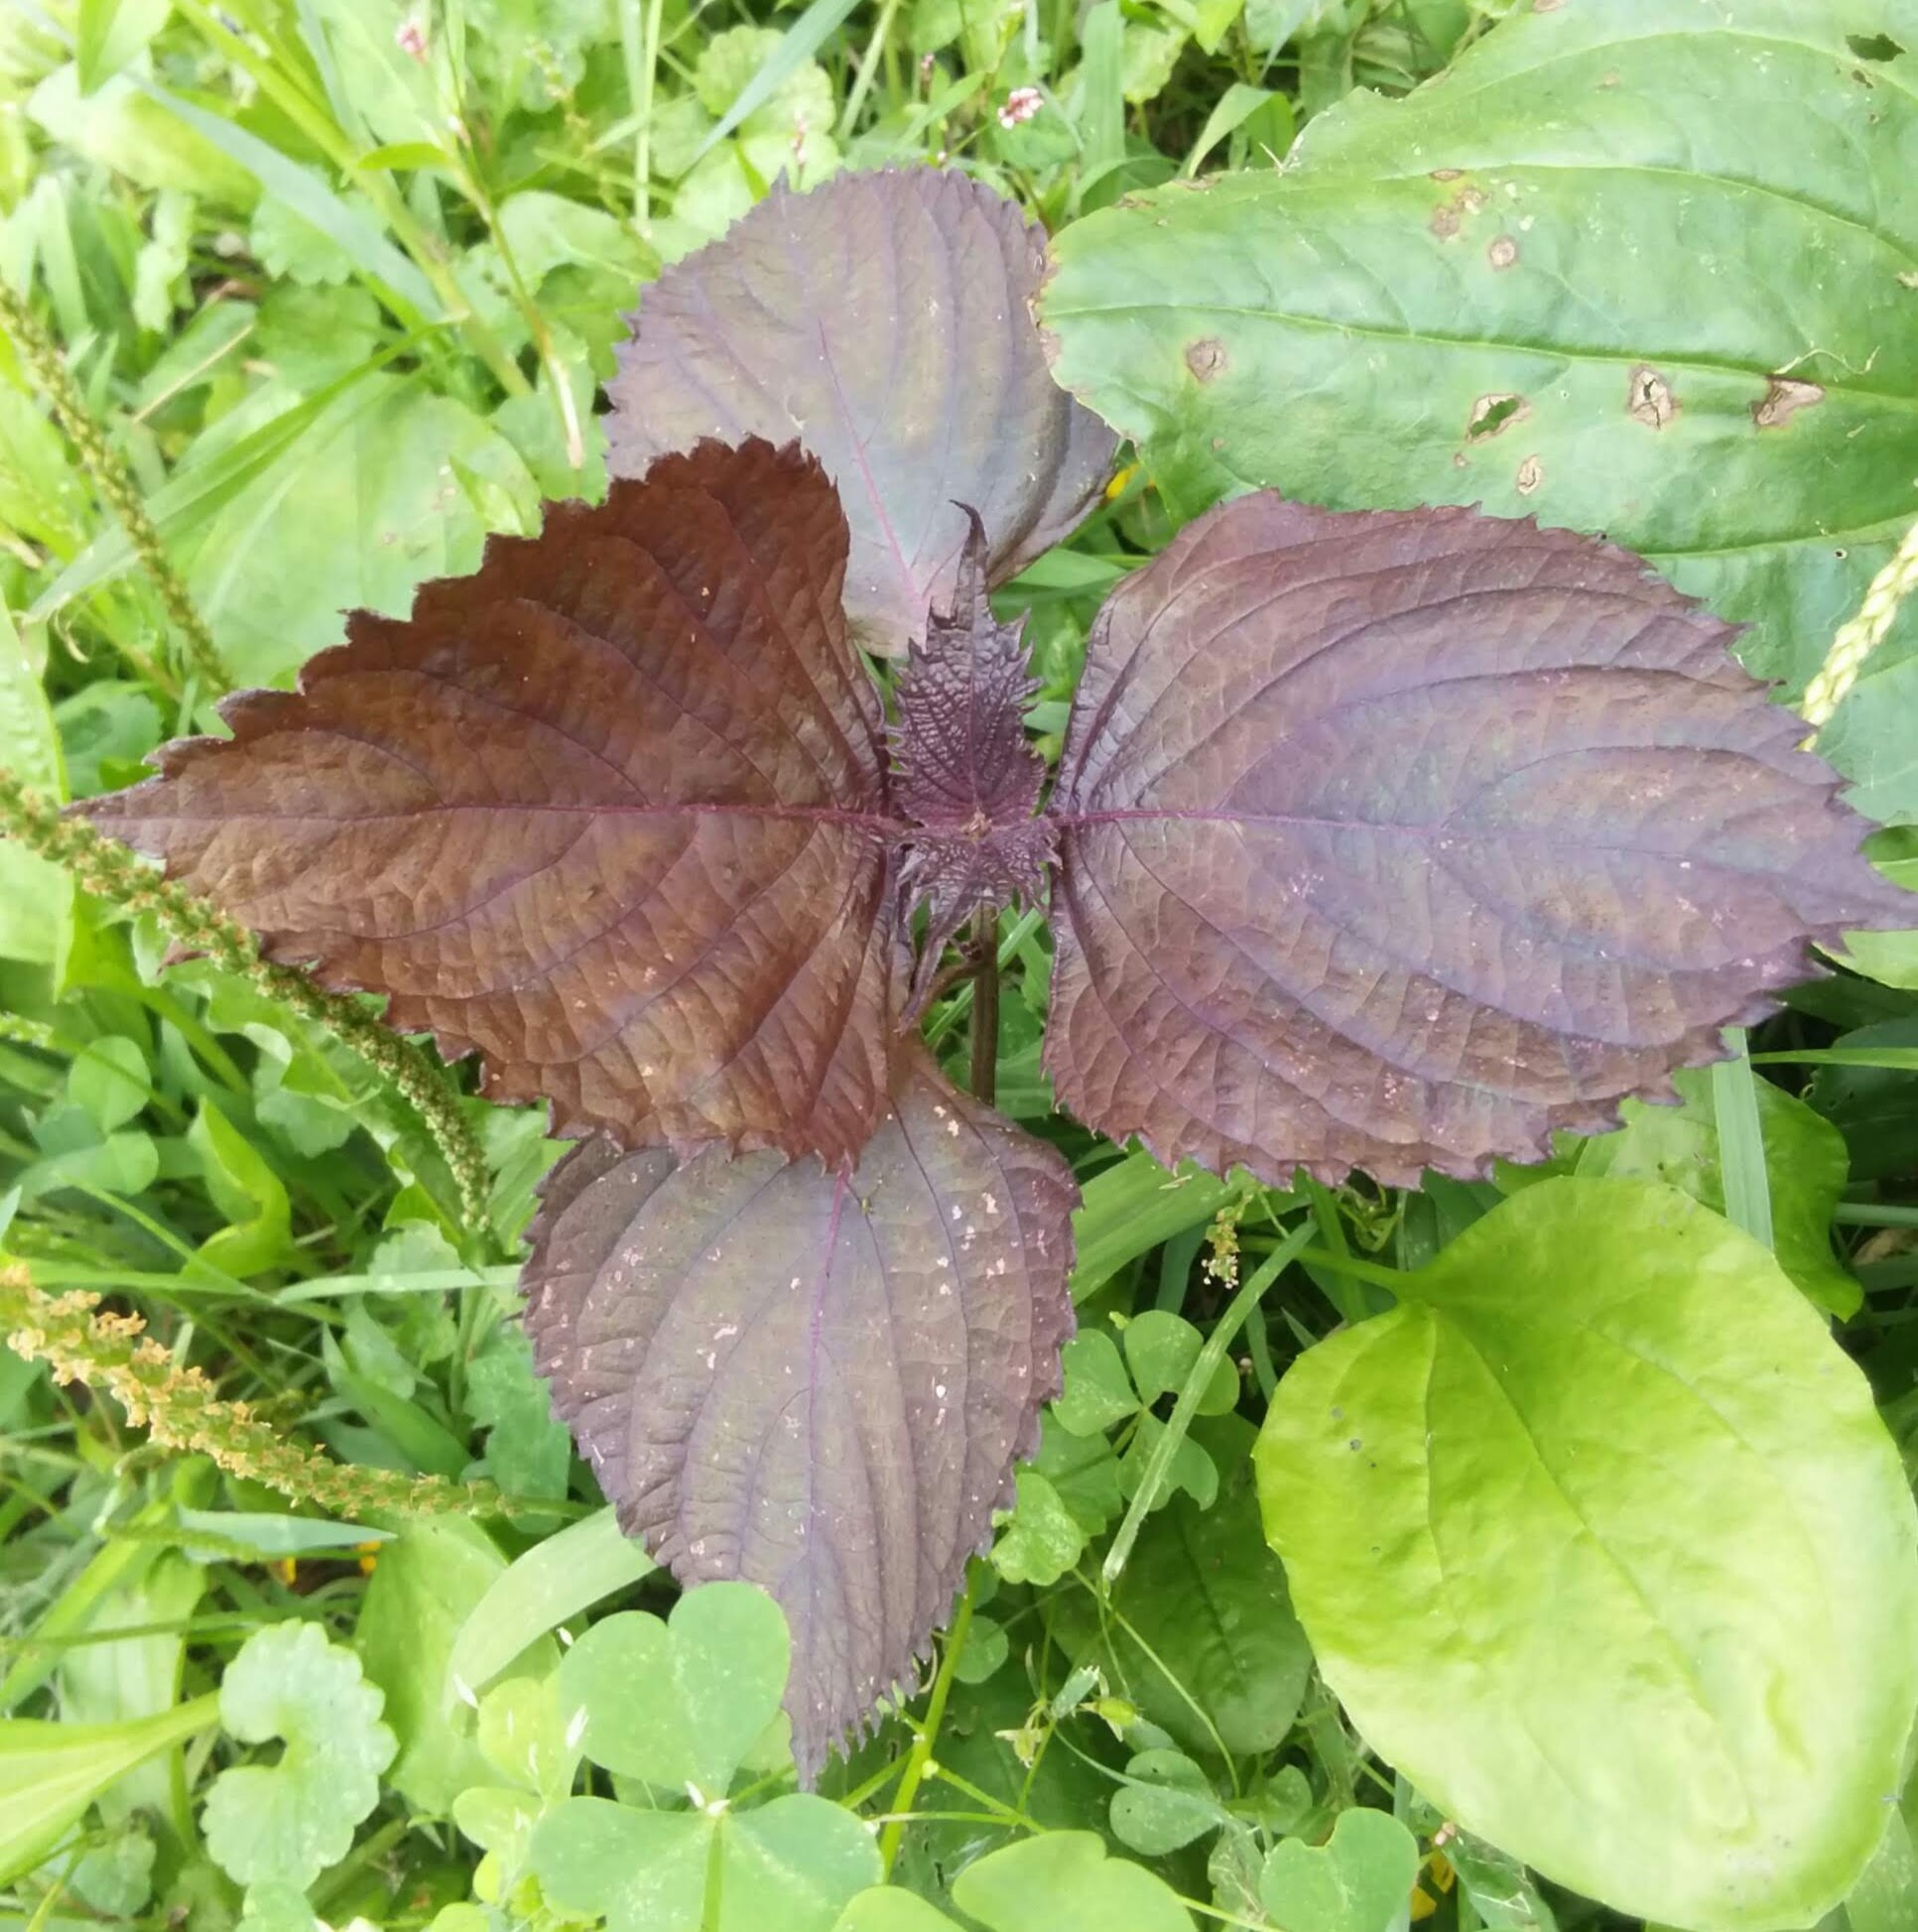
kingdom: Plantae
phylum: Tracheophyta
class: Magnoliopsida
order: Lamiales
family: Lamiaceae
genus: Perilla
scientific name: Perilla frutescens
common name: Perilla
